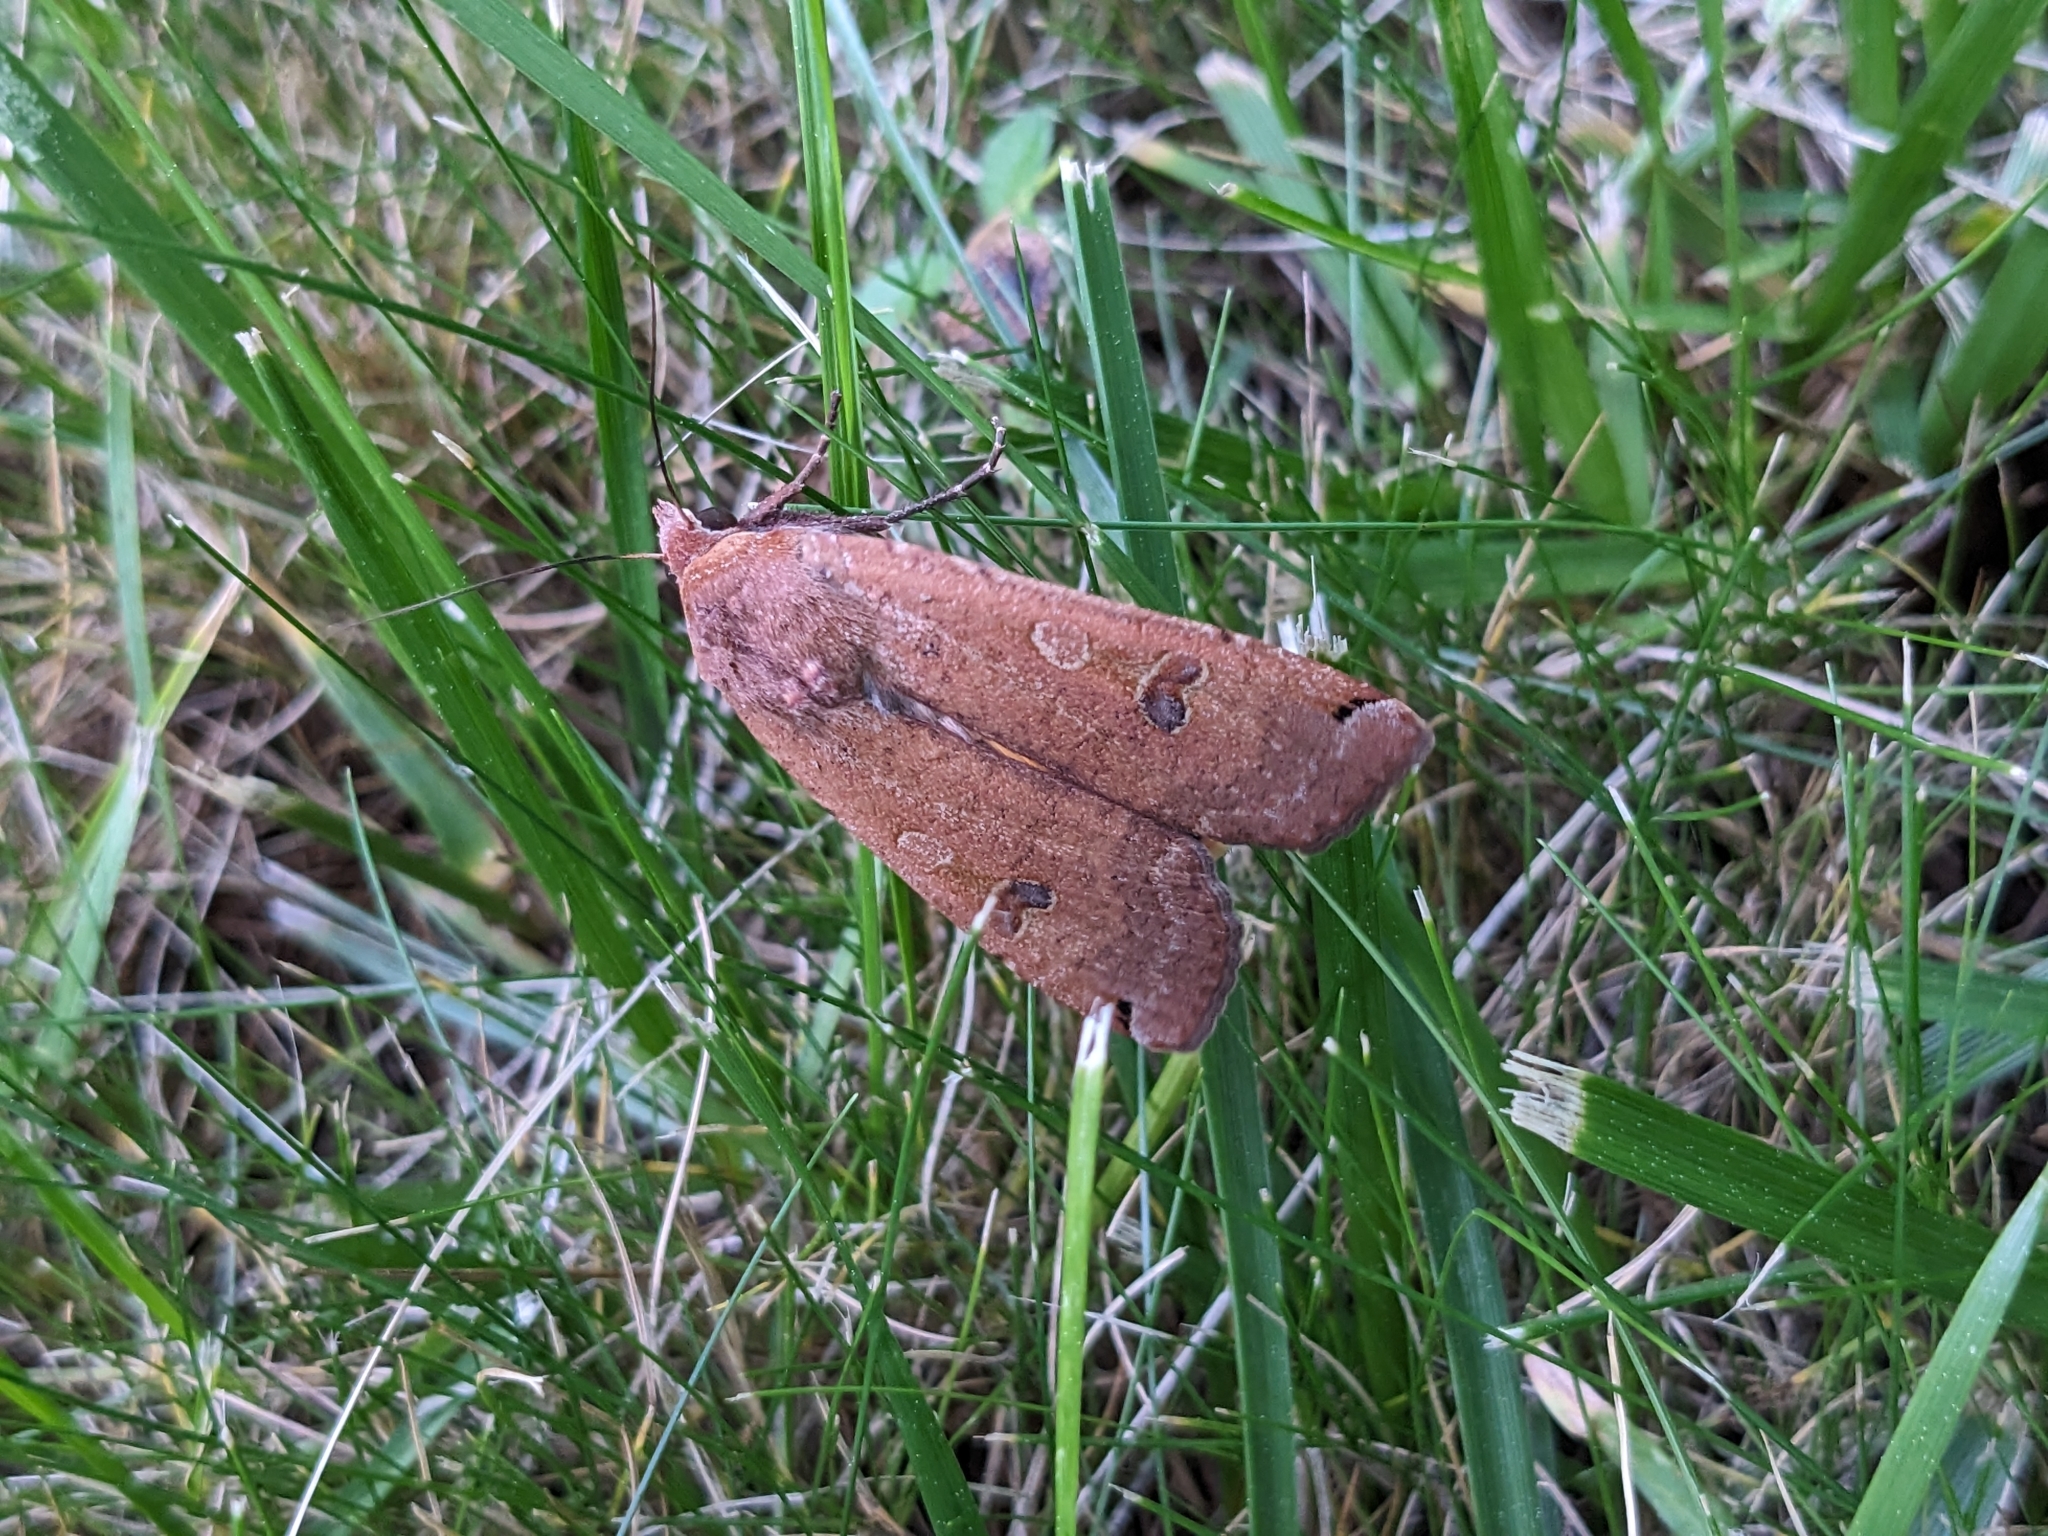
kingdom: Animalia
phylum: Arthropoda
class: Insecta
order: Lepidoptera
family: Noctuidae
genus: Noctua
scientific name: Noctua pronuba
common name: Large yellow underwing
